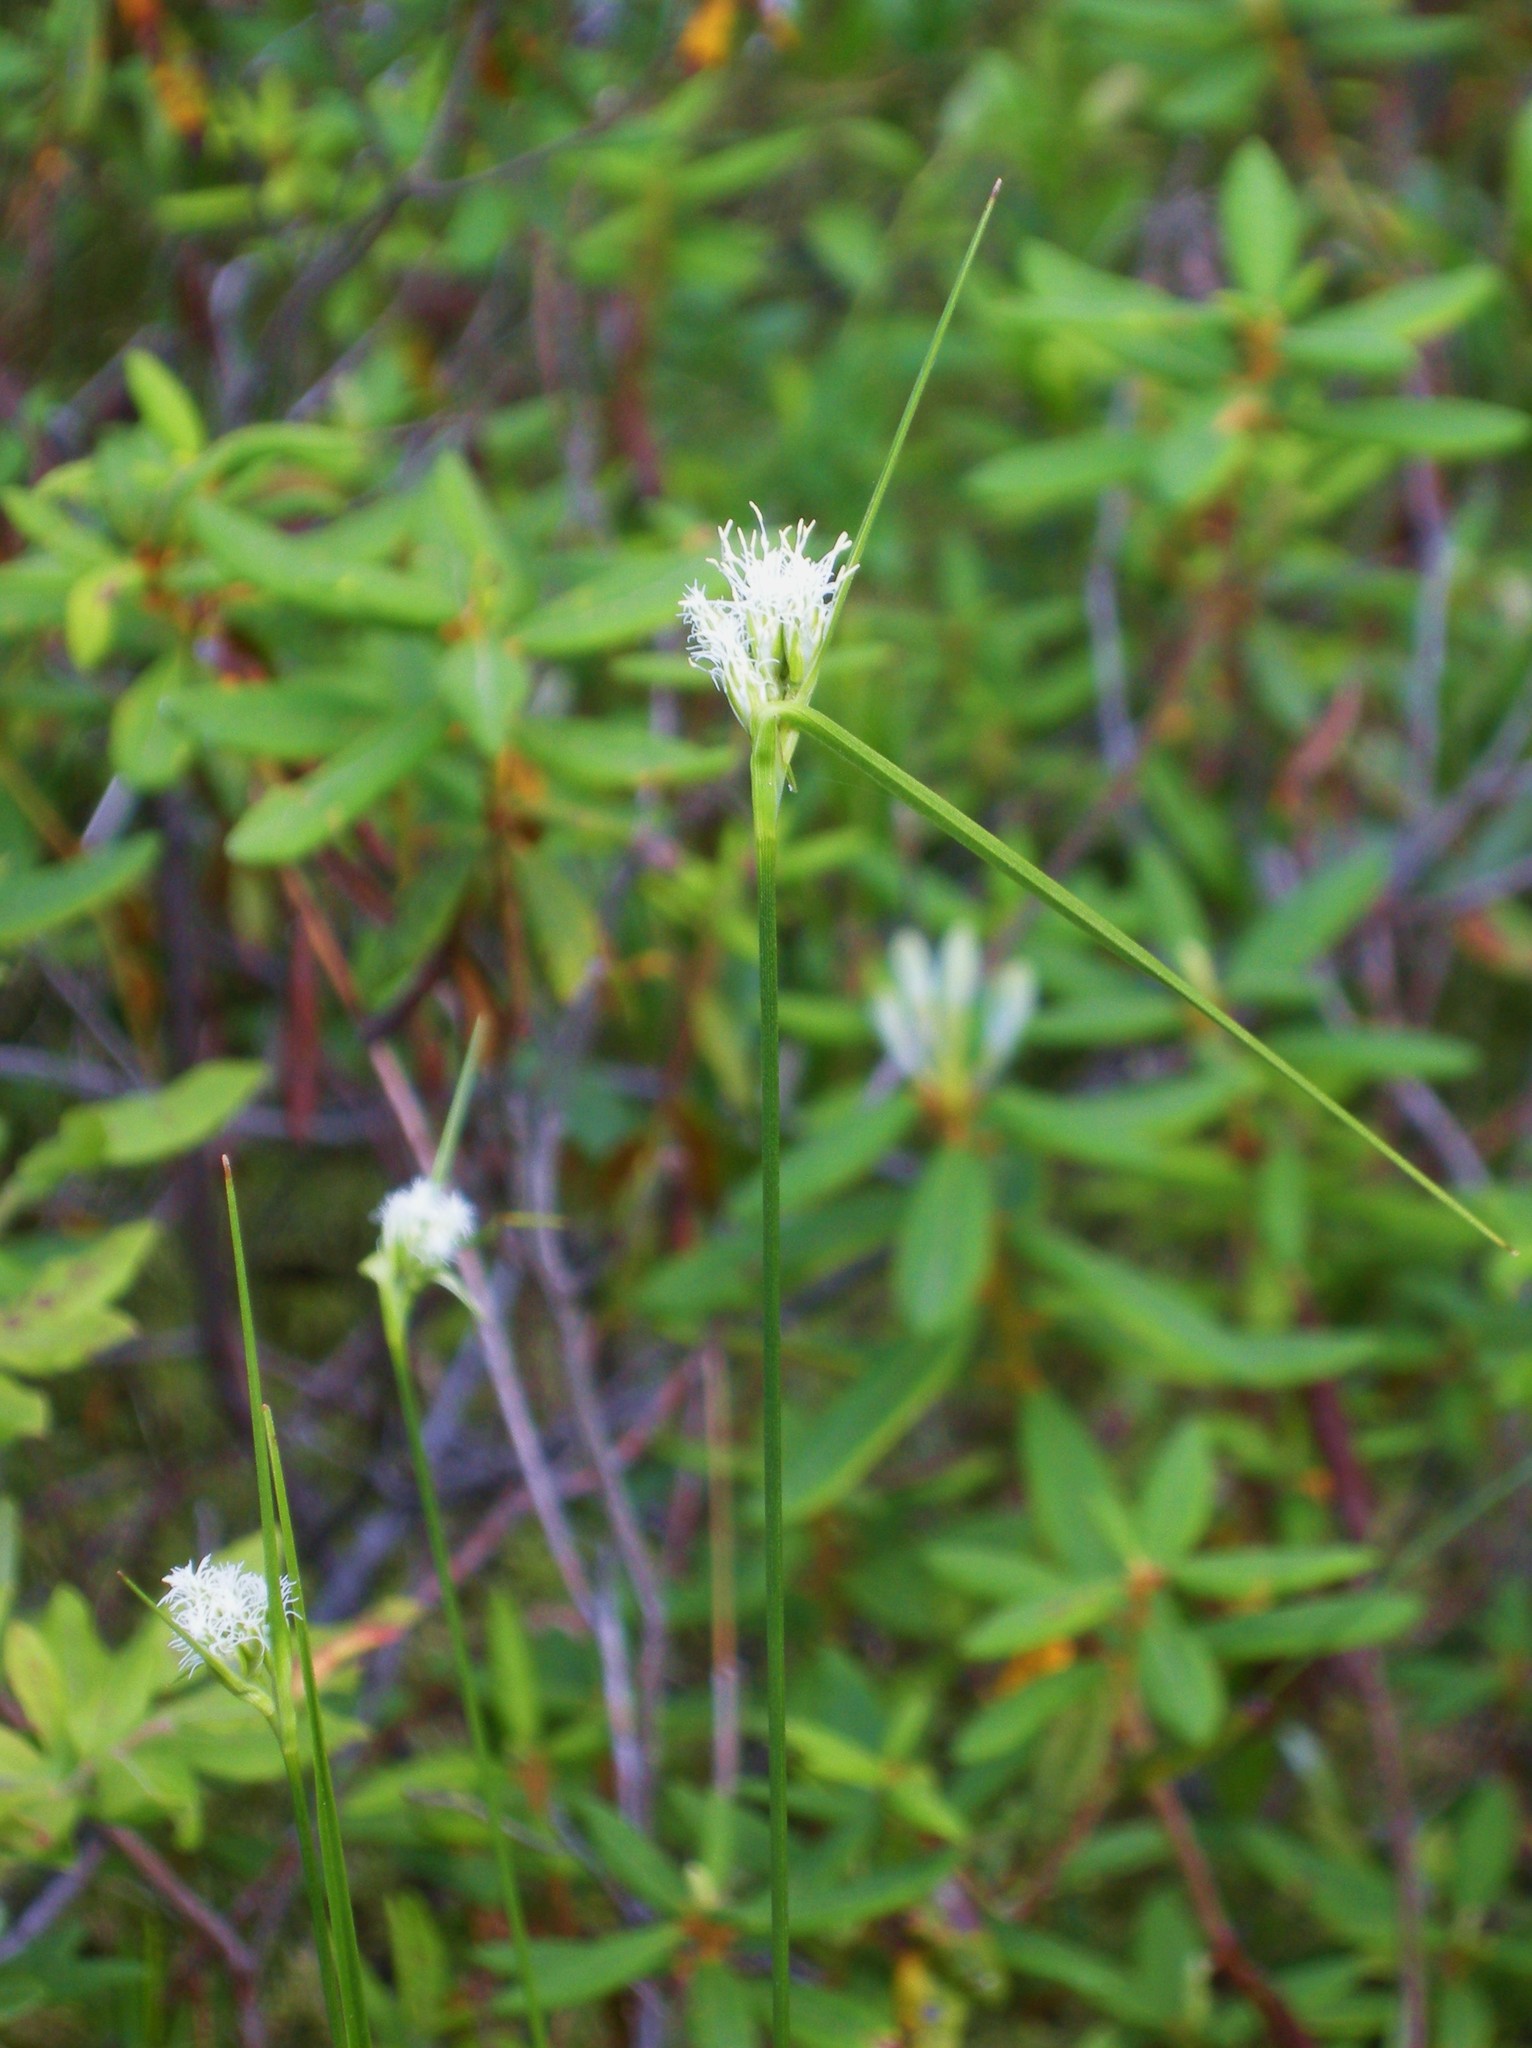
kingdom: Plantae
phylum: Tracheophyta
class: Liliopsida
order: Poales
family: Cyperaceae
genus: Eriophorum
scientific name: Eriophorum virginicum
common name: Tawny cottongrass
